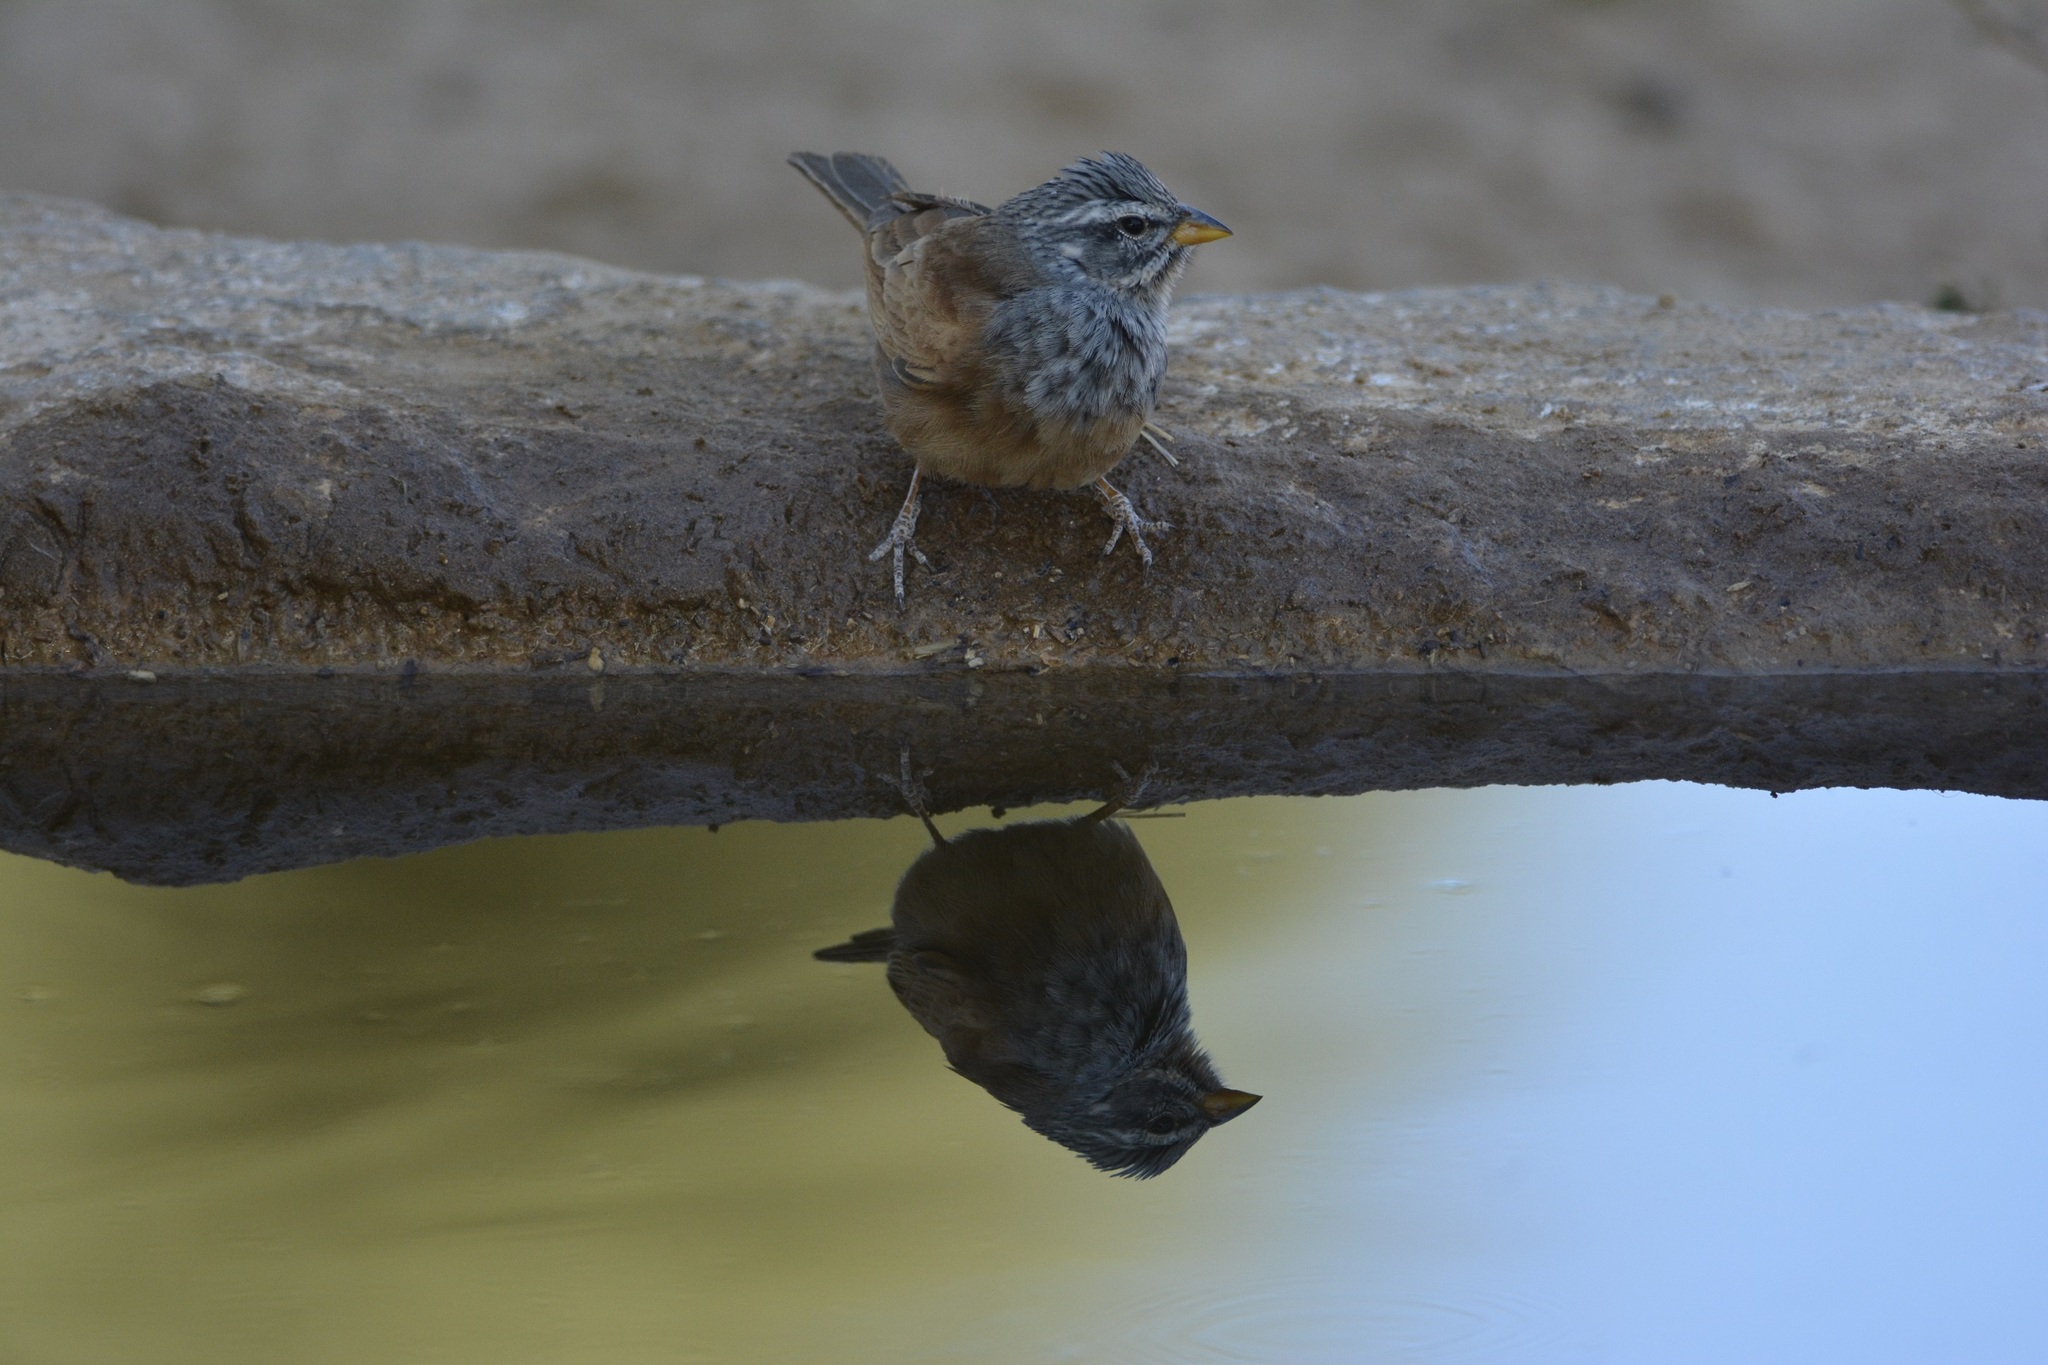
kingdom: Animalia
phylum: Chordata
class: Aves
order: Passeriformes
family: Emberizidae
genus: Emberiza
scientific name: Emberiza sahari
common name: House bunting
